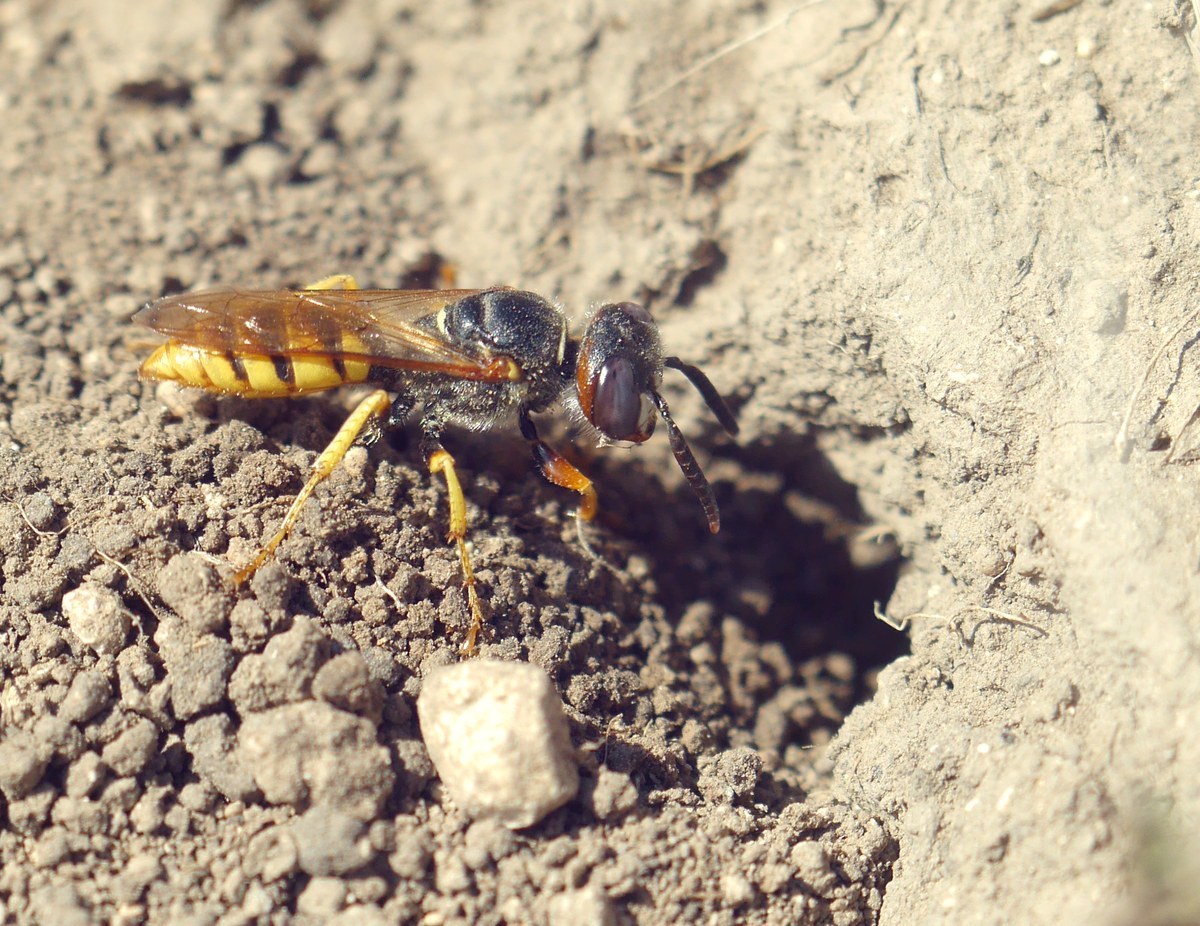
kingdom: Animalia
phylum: Arthropoda
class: Insecta
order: Hymenoptera
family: Crabronidae
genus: Philanthus
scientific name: Philanthus triangulum
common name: Bee wolf
